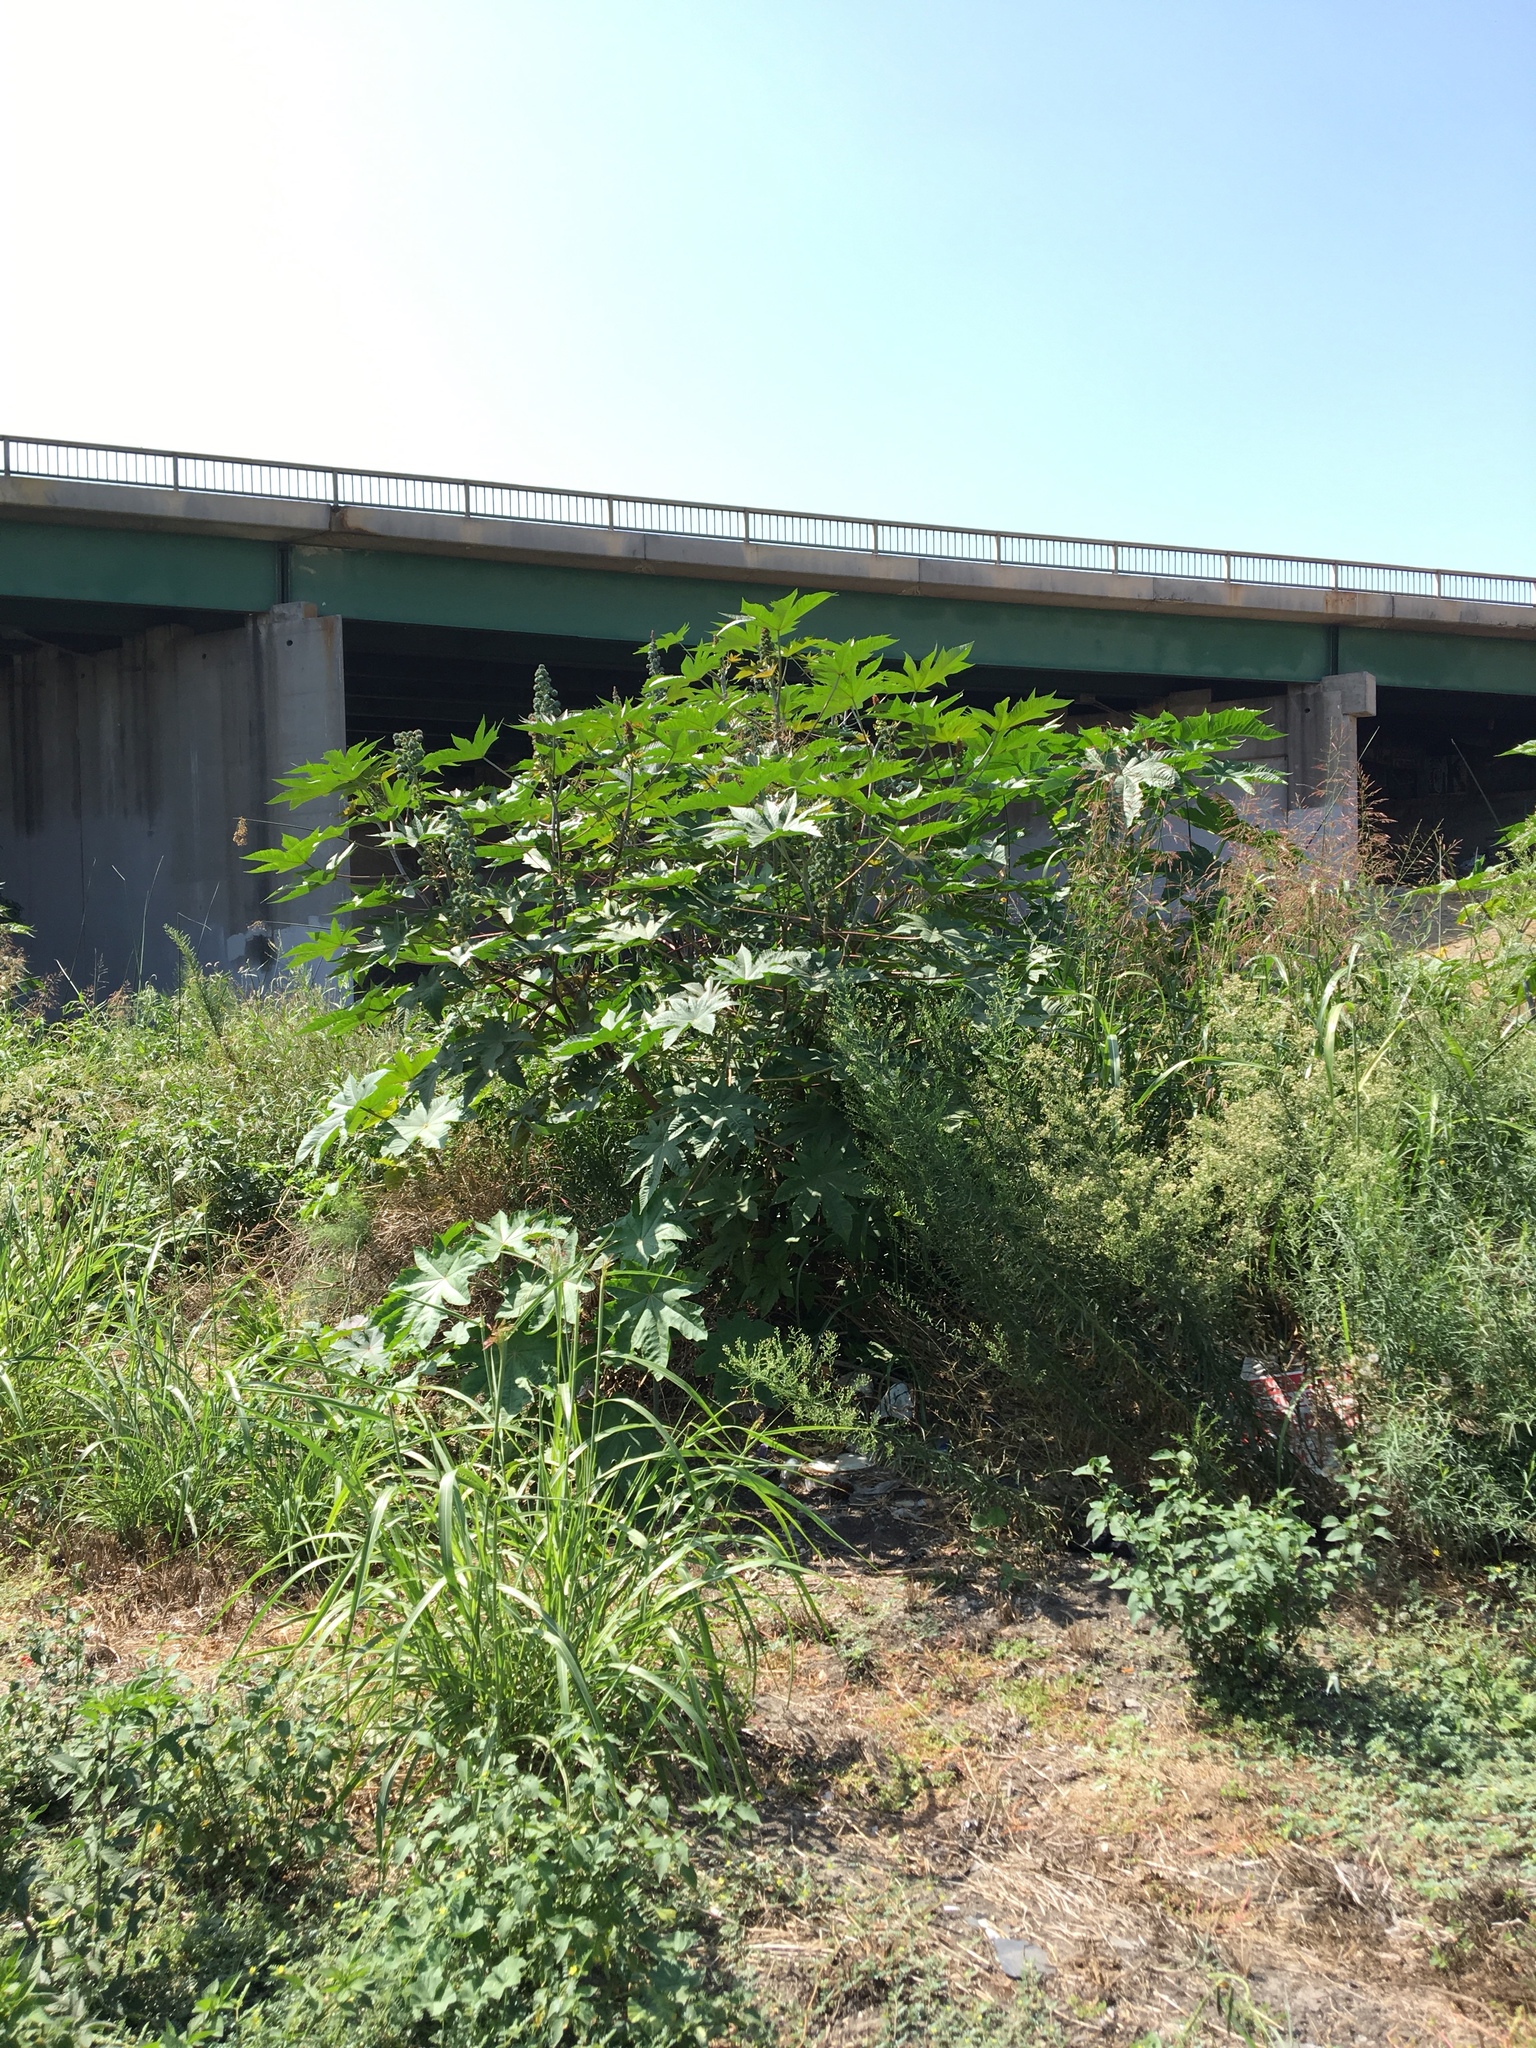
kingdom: Plantae
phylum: Tracheophyta
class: Magnoliopsida
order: Malpighiales
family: Euphorbiaceae
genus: Ricinus
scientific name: Ricinus communis
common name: Castor-oil-plant
